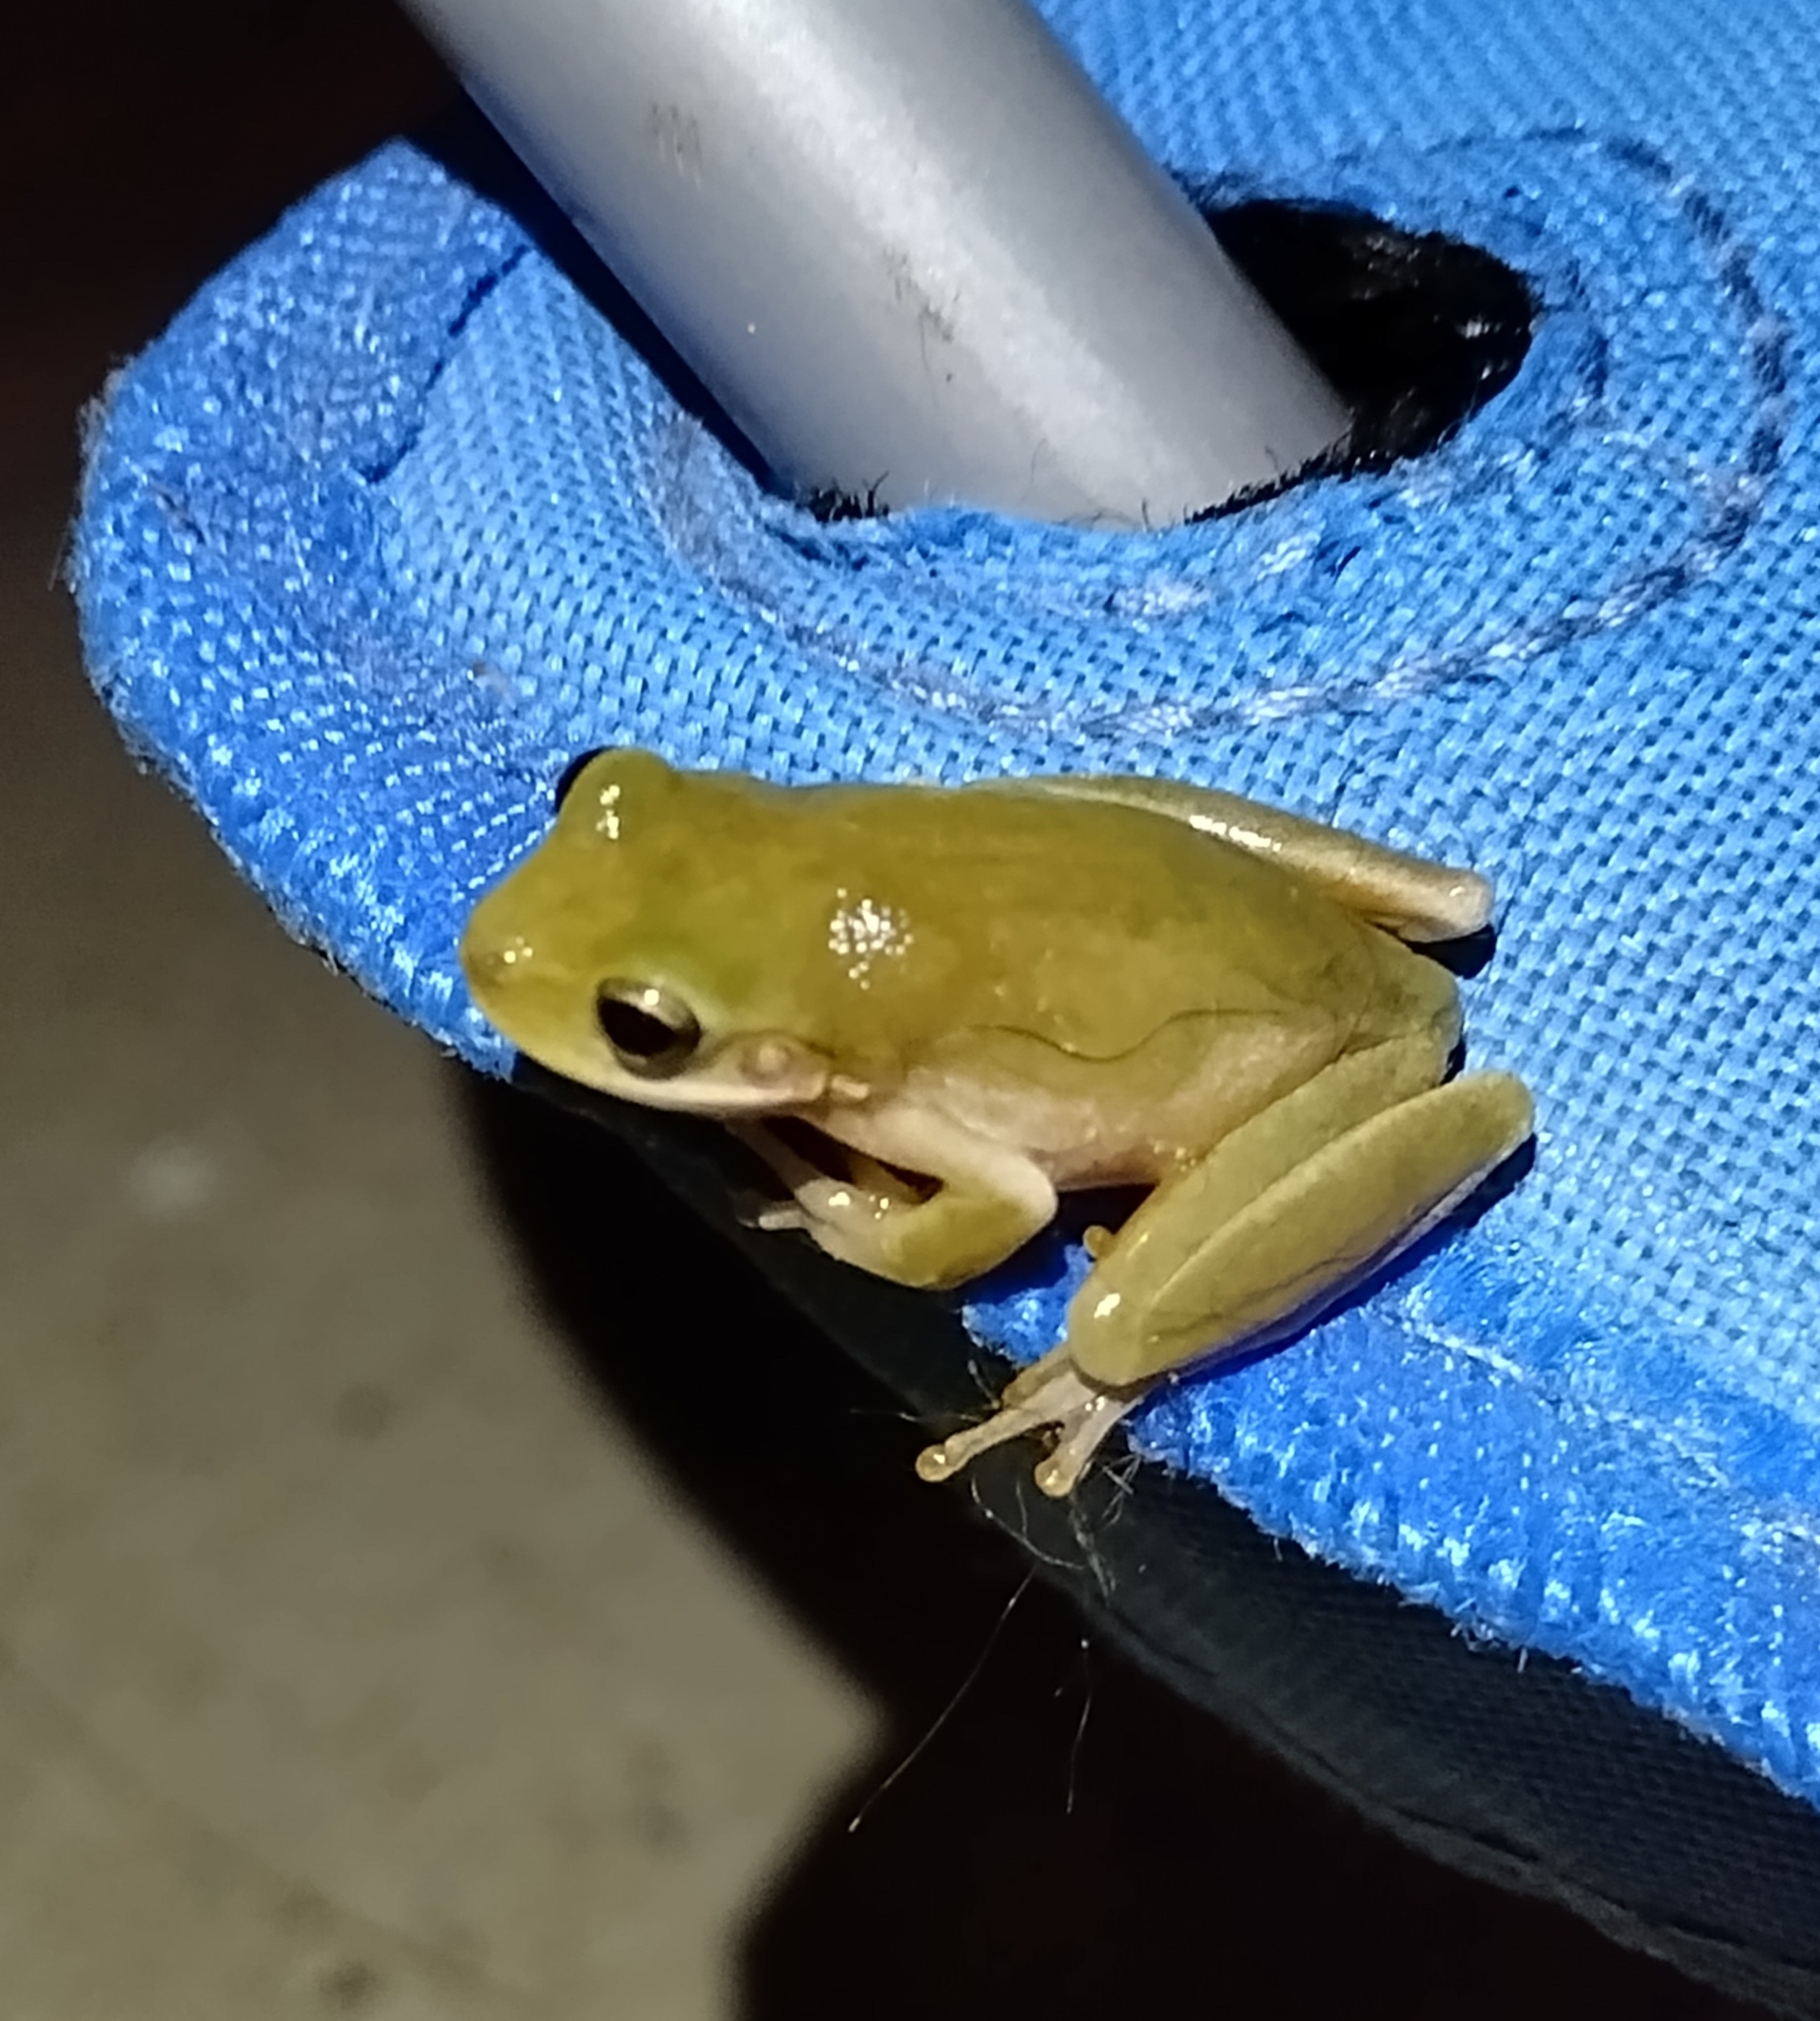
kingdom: Animalia
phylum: Chordata
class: Amphibia
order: Anura
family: Hylidae
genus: Dryophytes
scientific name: Dryophytes squirellus
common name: Squirrel treefrog
